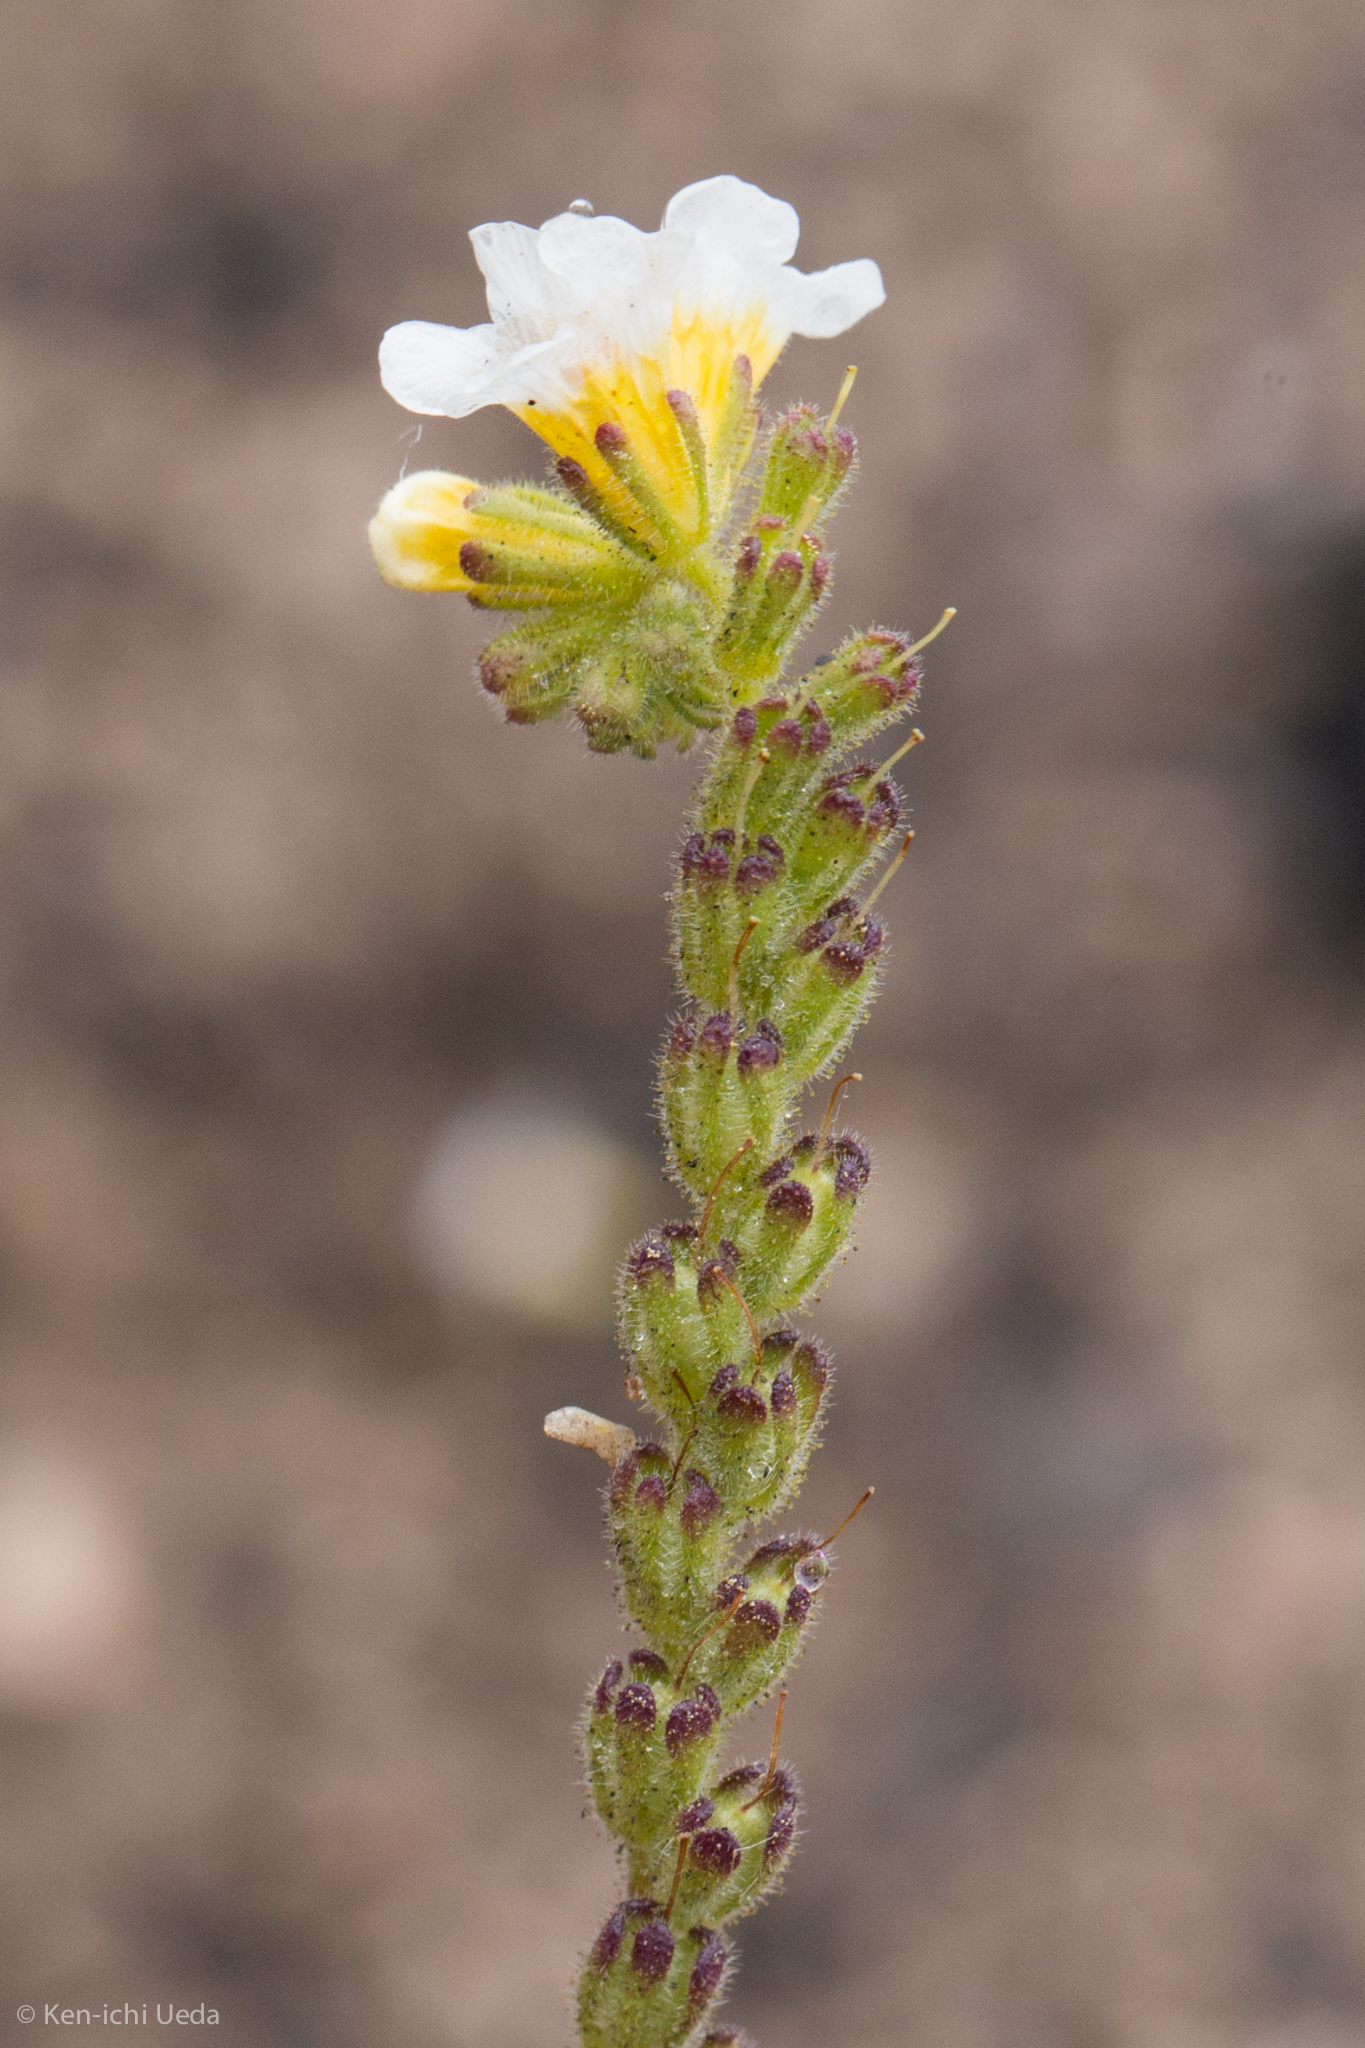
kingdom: Plantae
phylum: Tracheophyta
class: Magnoliopsida
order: Boraginales
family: Hydrophyllaceae
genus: Phacelia
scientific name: Phacelia brachyloba
